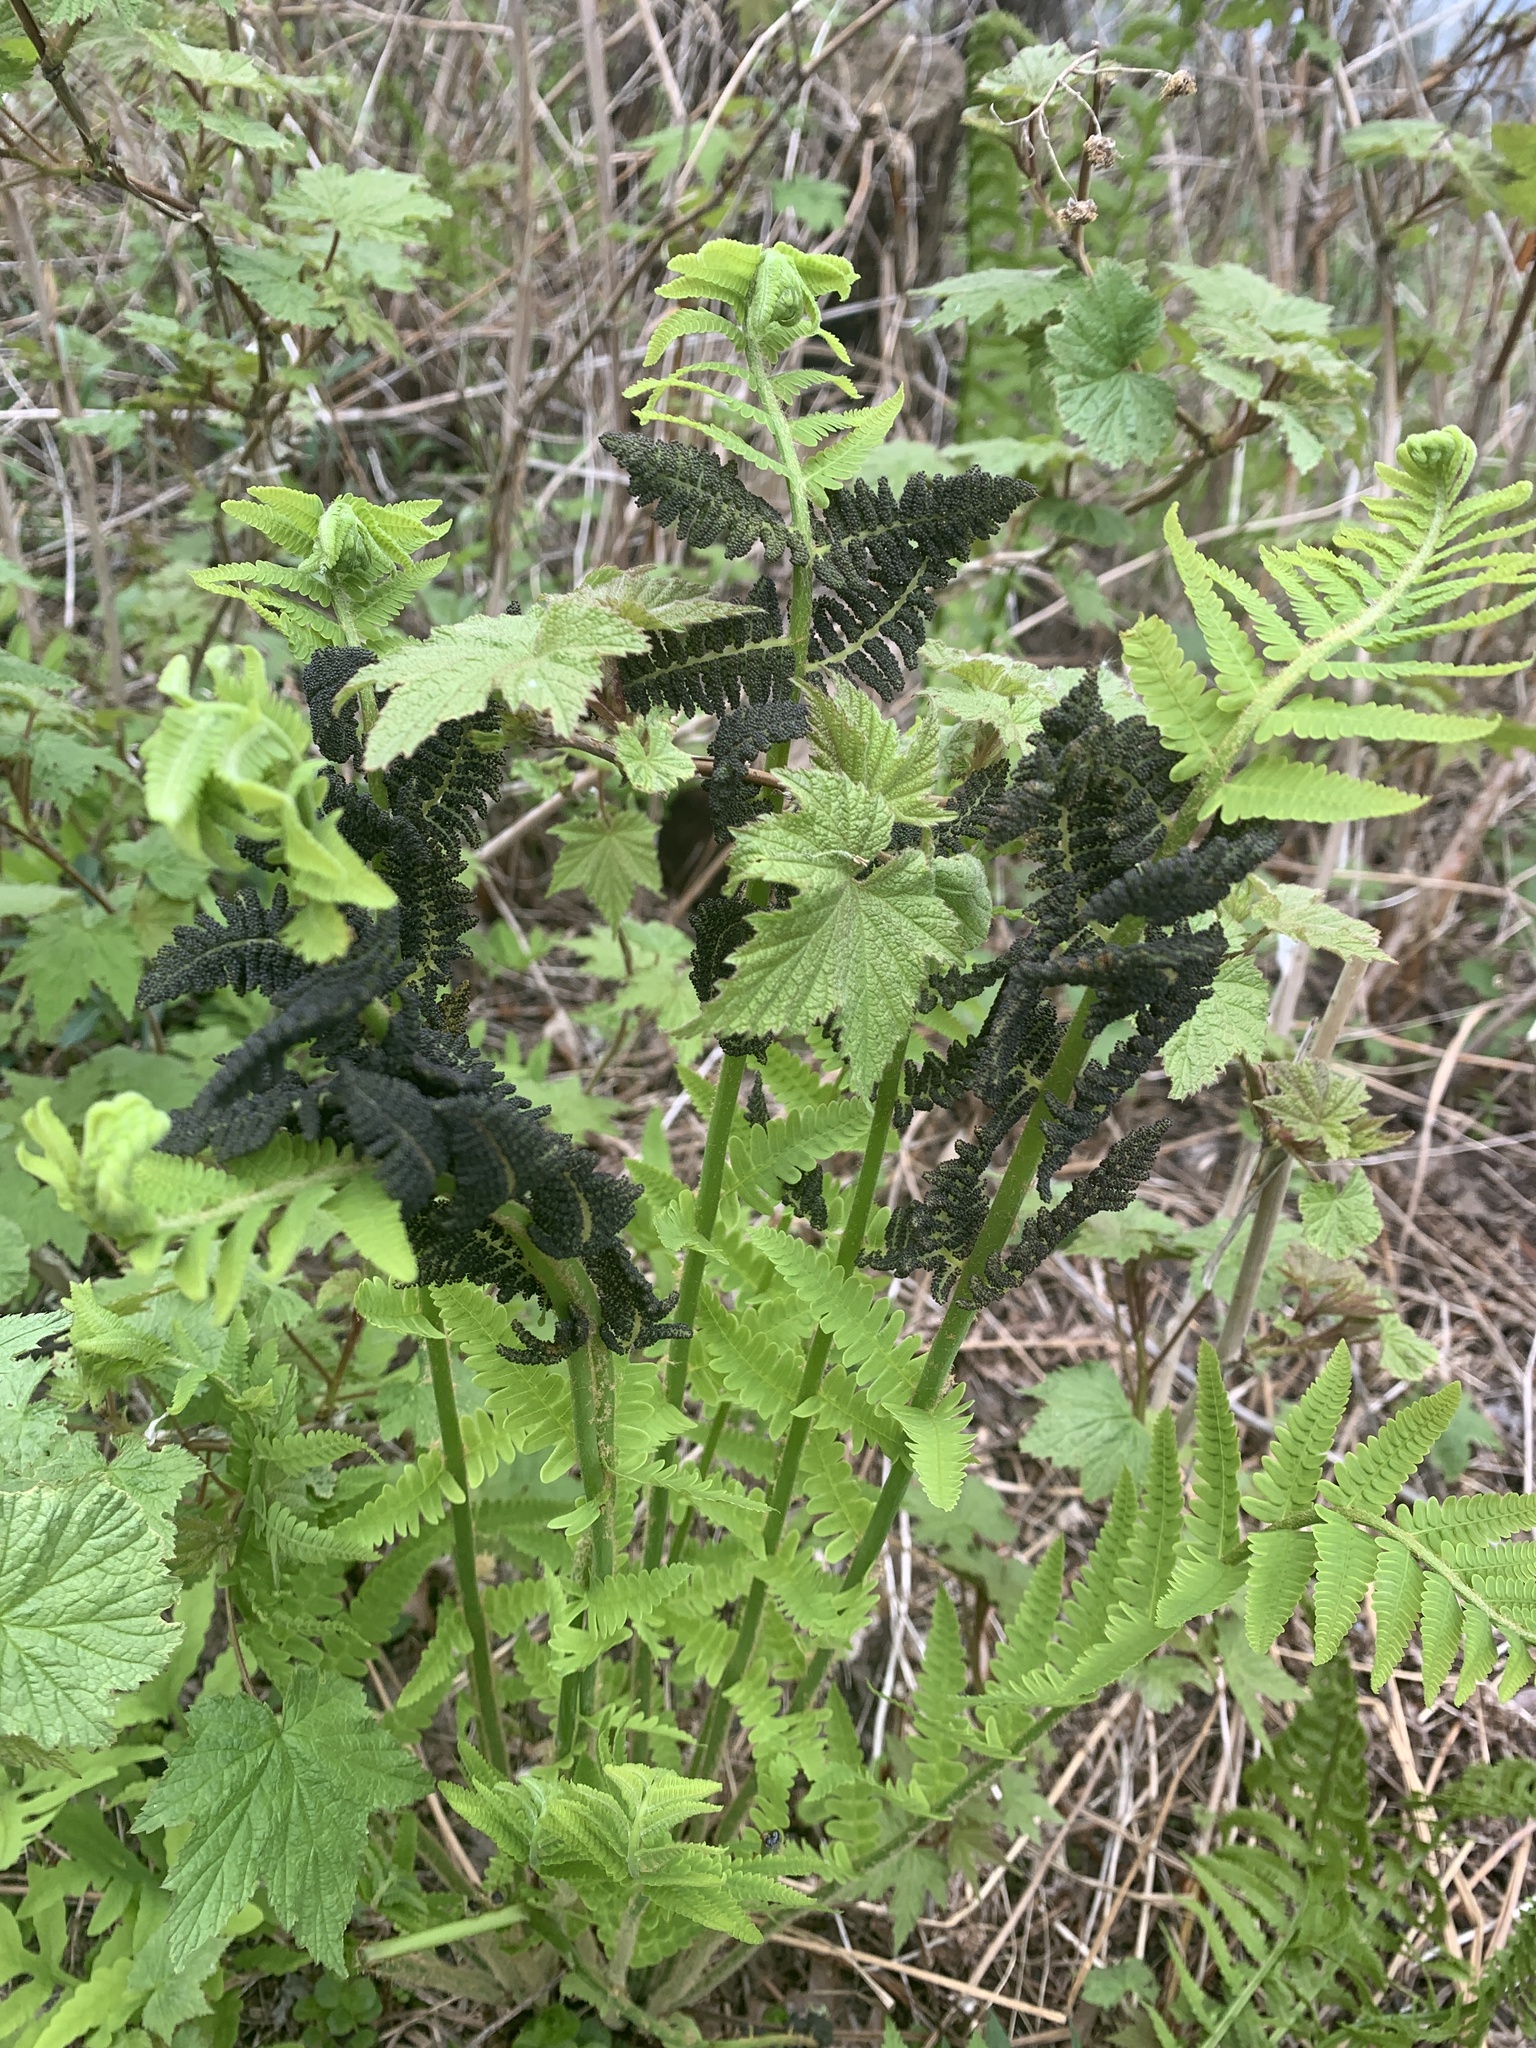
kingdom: Plantae
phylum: Tracheophyta
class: Polypodiopsida
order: Osmundales
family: Osmundaceae
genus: Claytosmunda
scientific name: Claytosmunda claytoniana
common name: Clayton's fern
